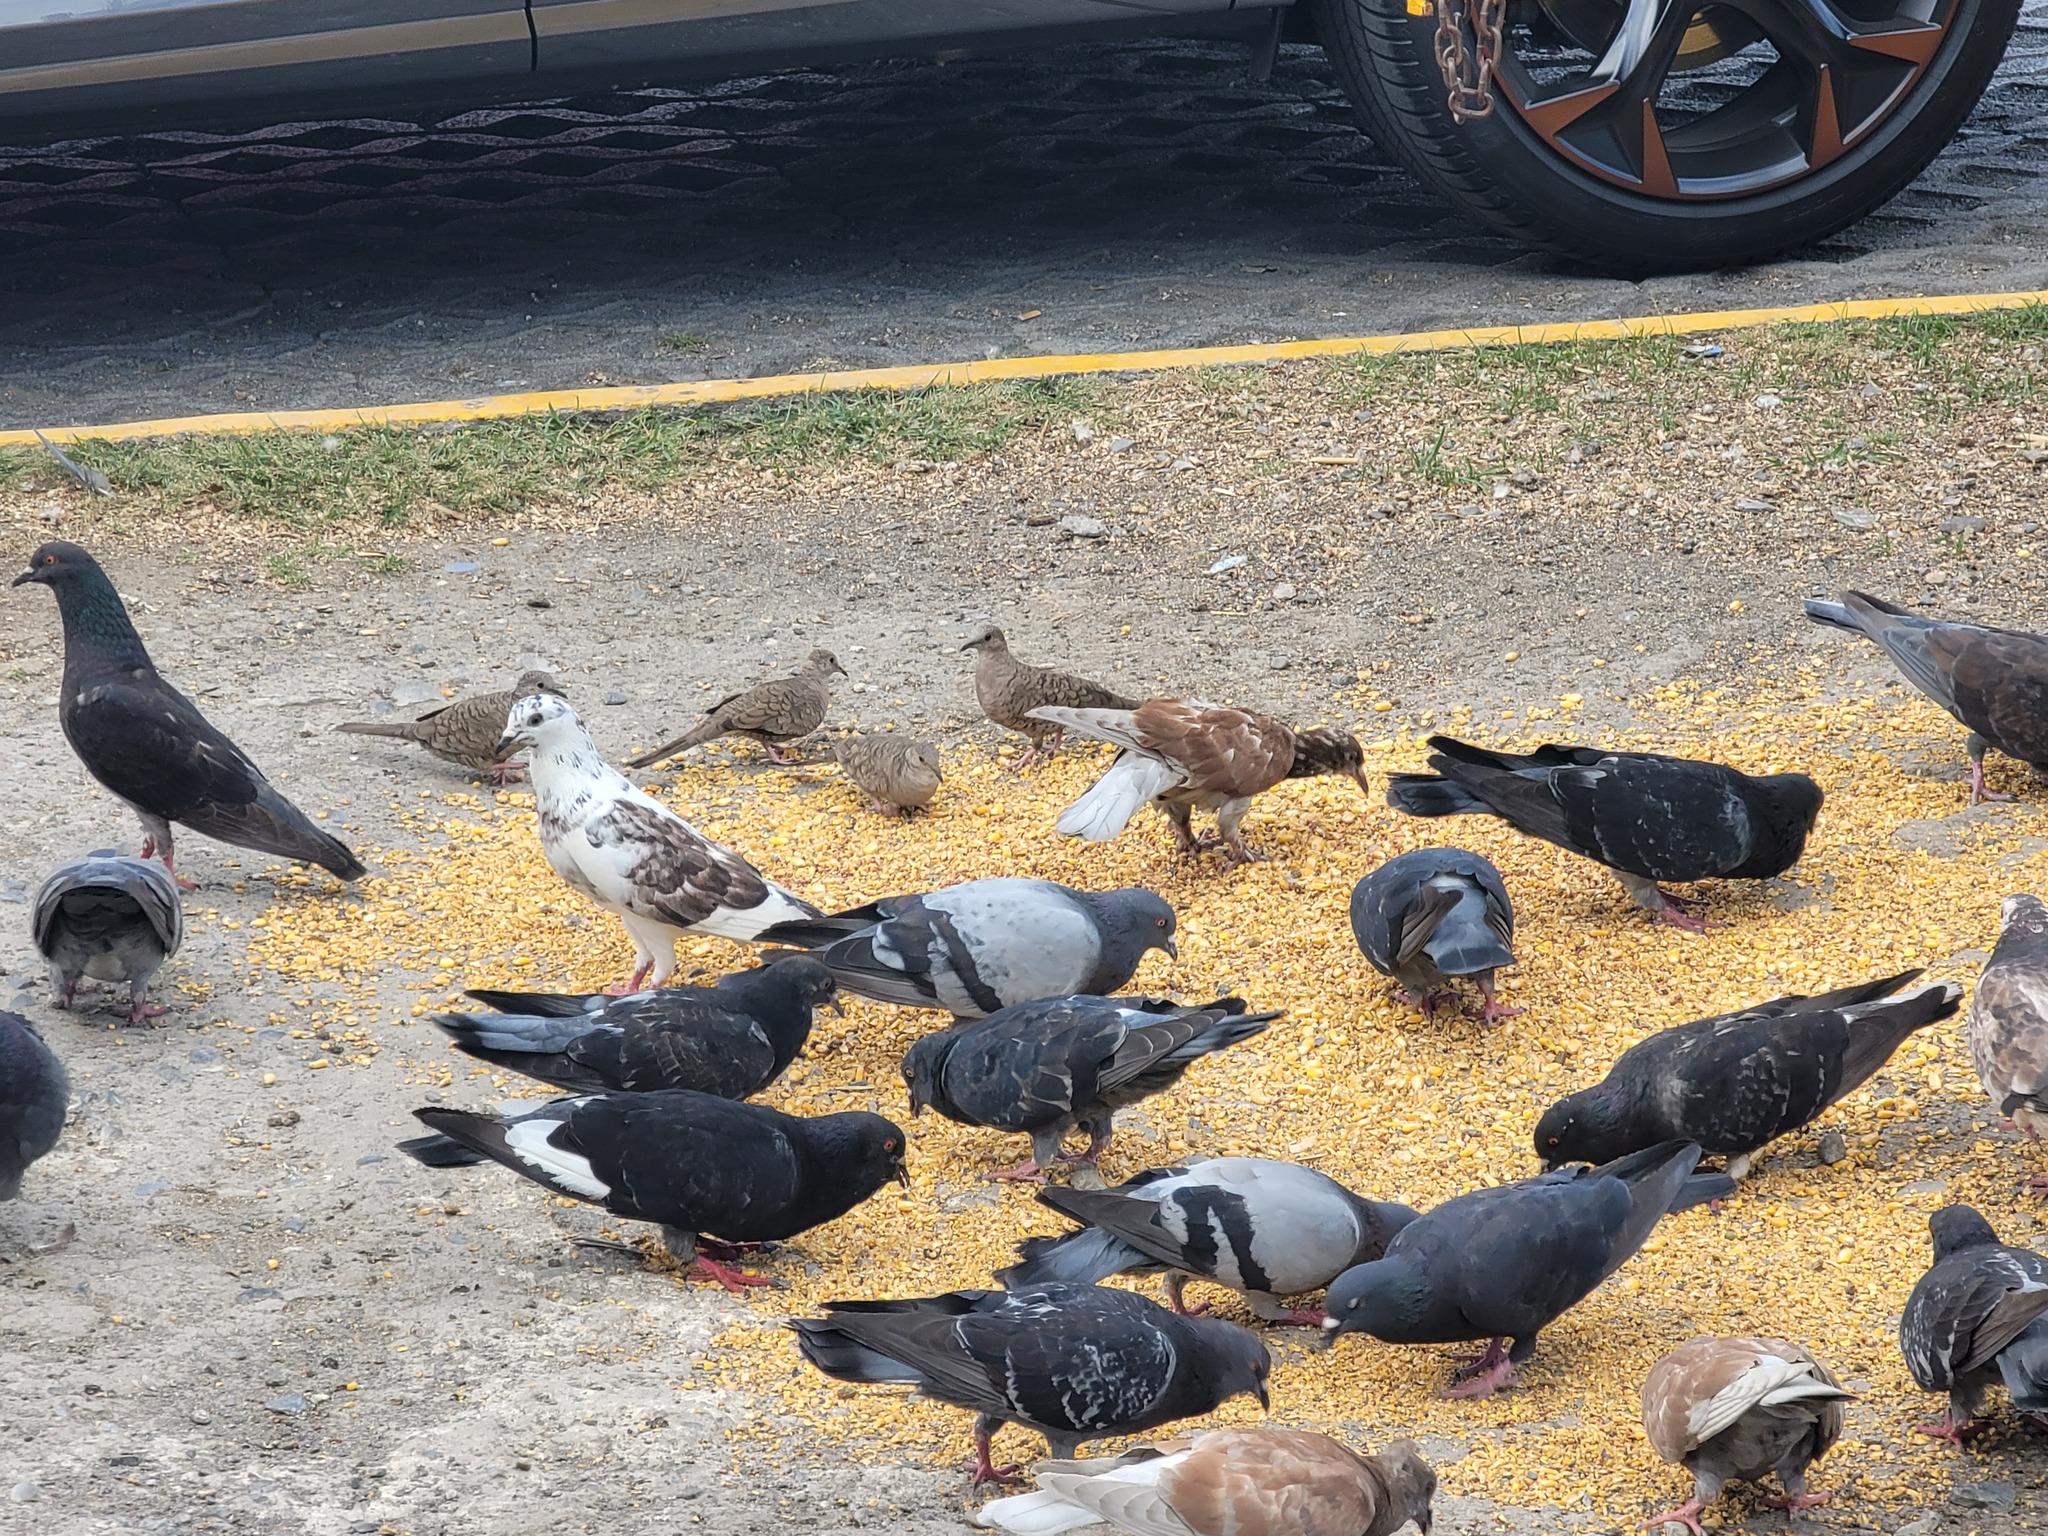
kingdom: Animalia
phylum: Chordata
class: Aves
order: Columbiformes
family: Columbidae
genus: Columba
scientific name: Columba livia
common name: Rock pigeon
